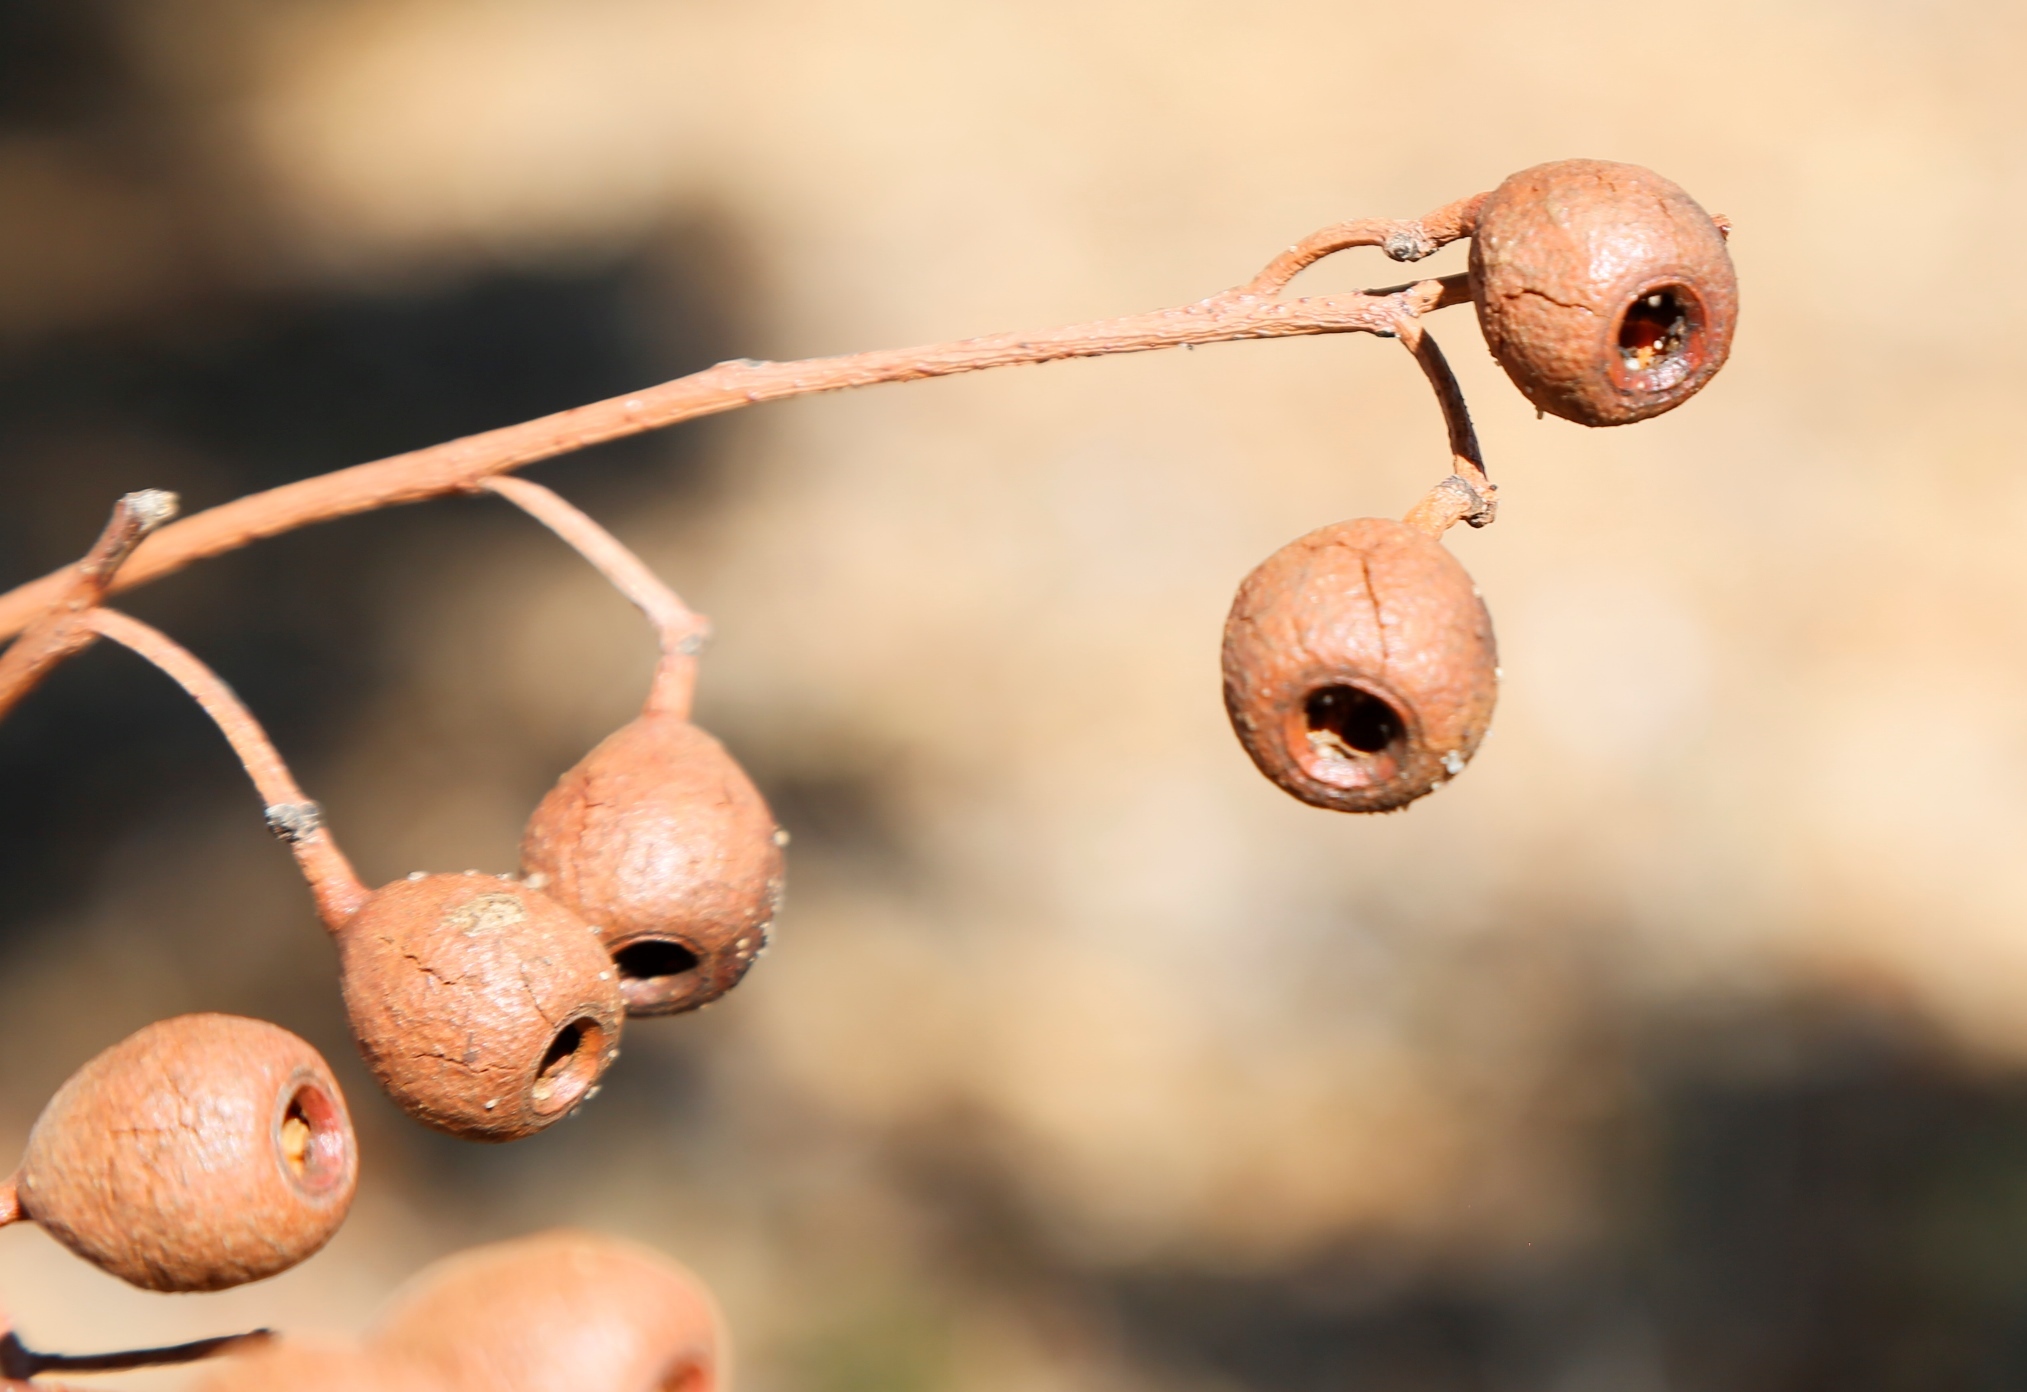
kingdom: Plantae
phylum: Tracheophyta
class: Magnoliopsida
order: Myrtales
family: Myrtaceae
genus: Eucalyptus
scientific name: Eucalyptus marginata
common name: Jarrah
